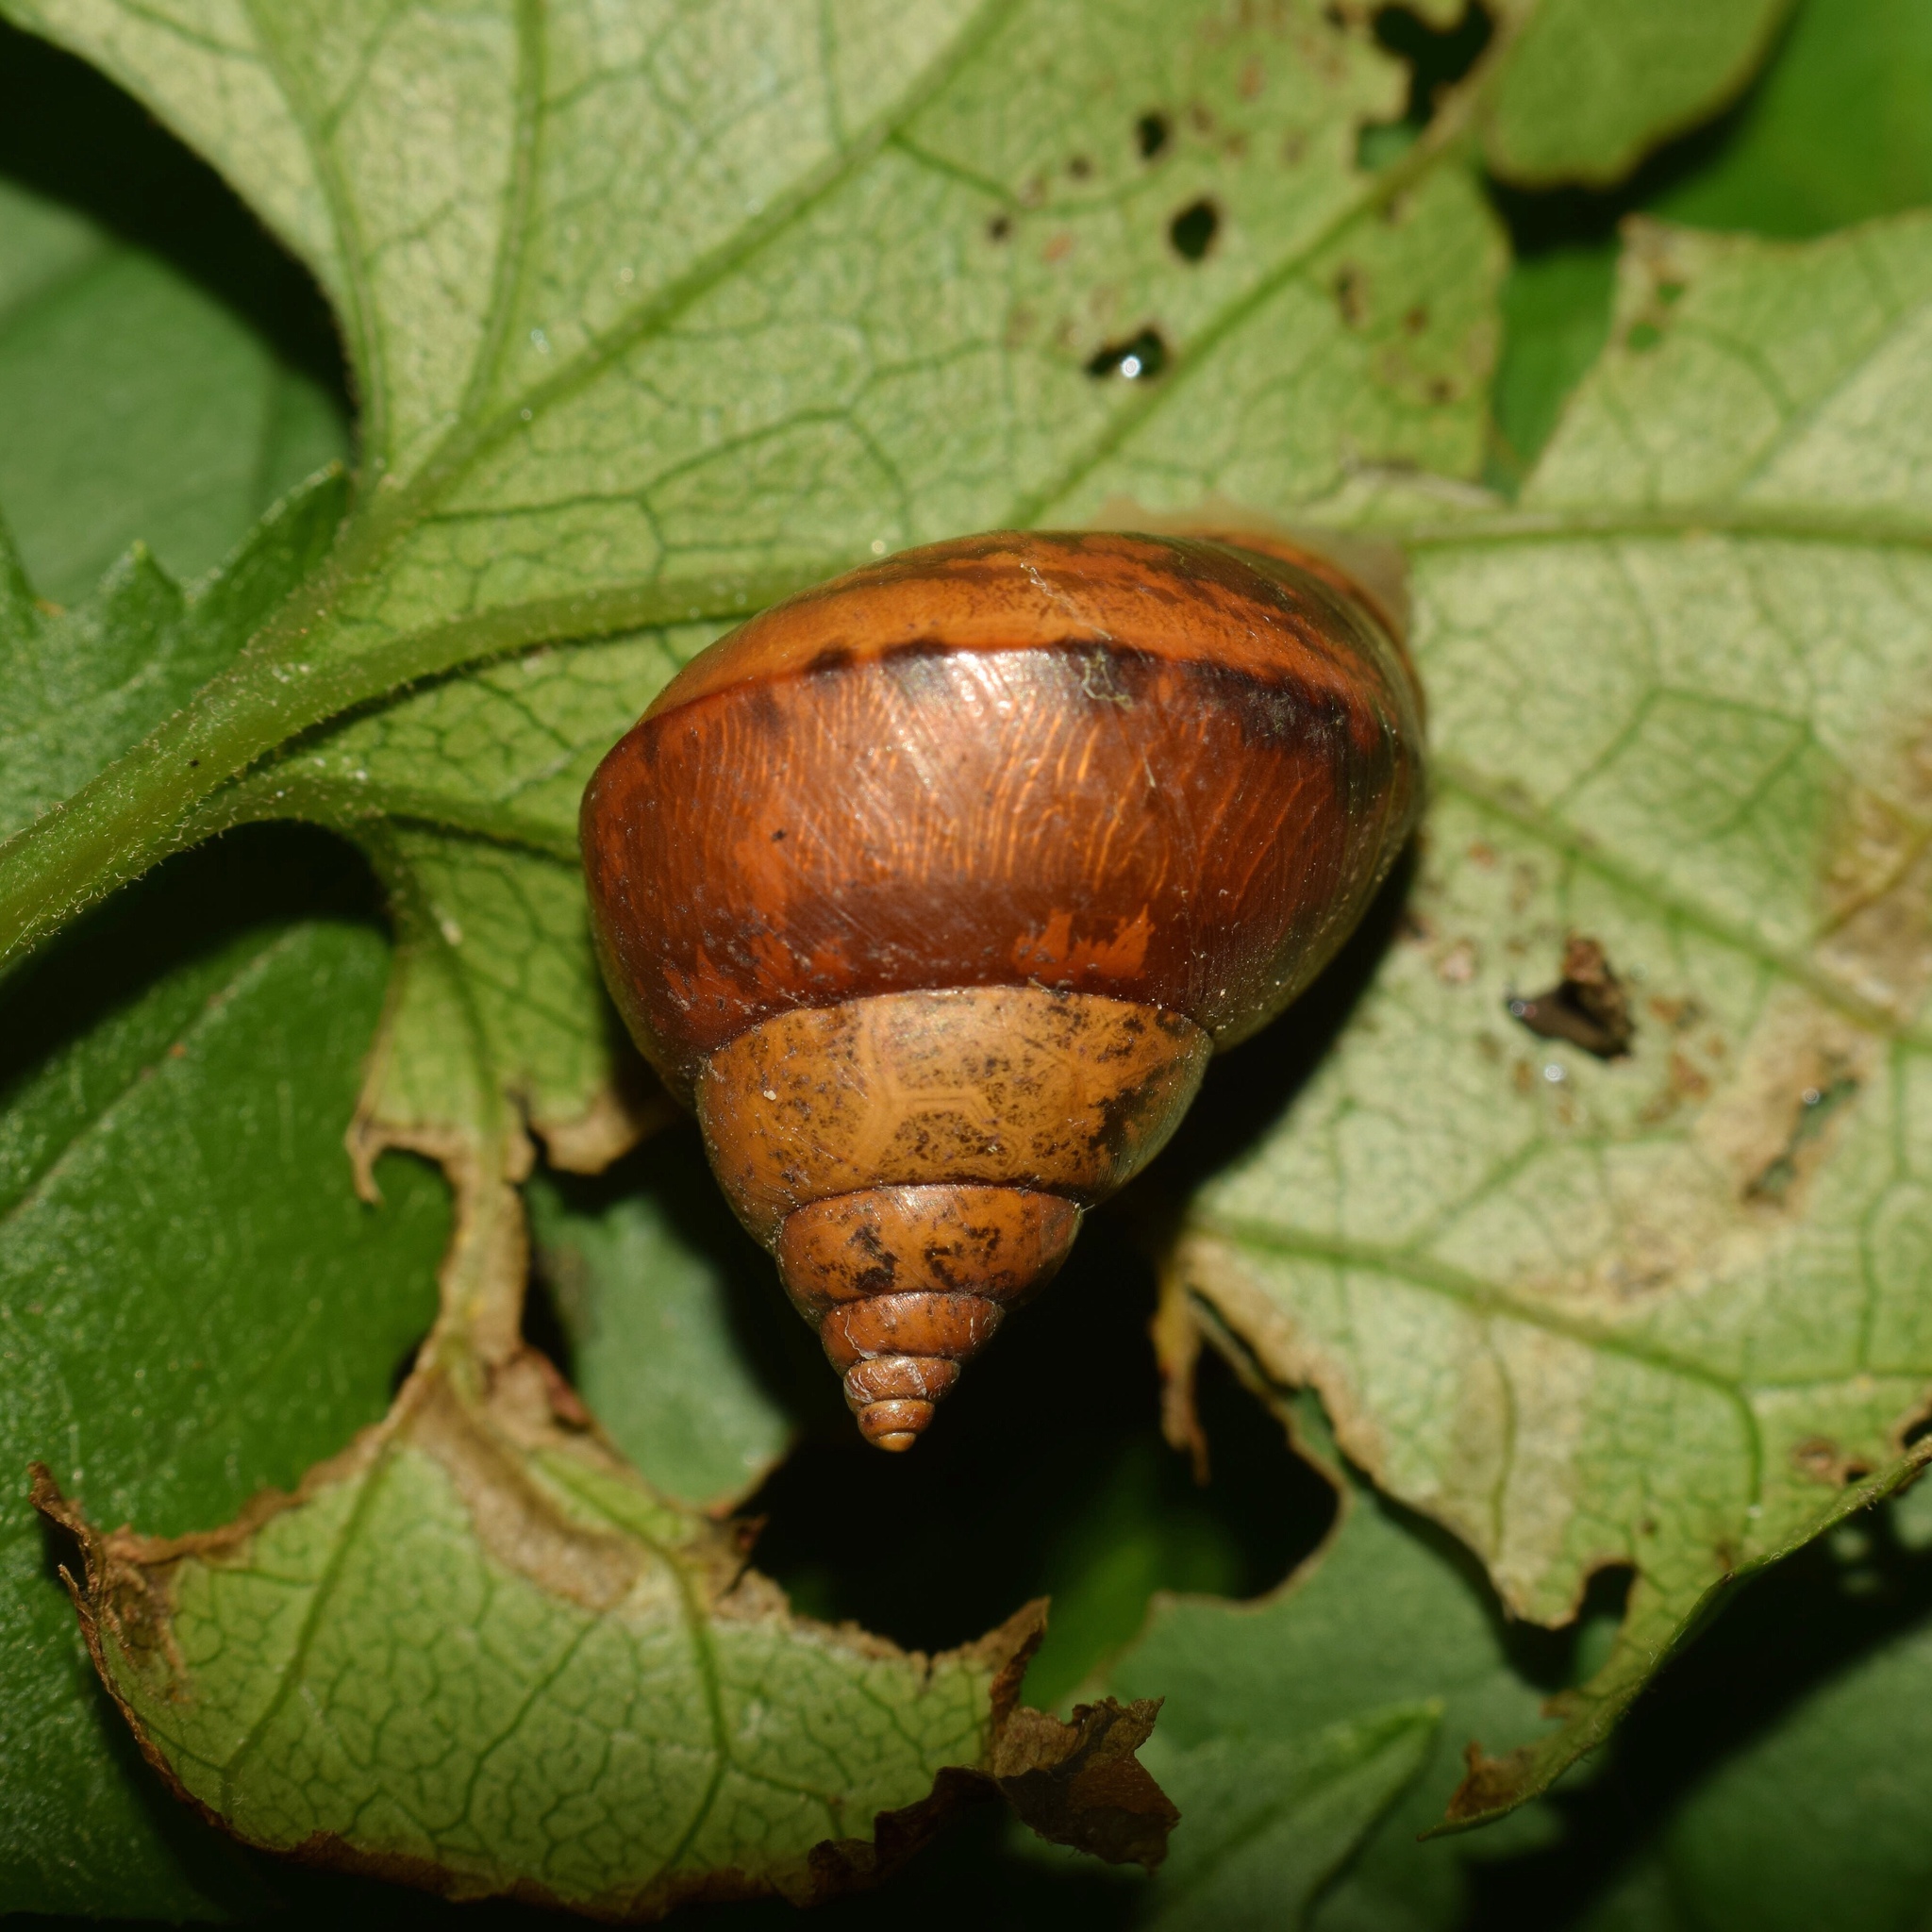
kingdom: Animalia
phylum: Mollusca
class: Gastropoda
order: Stylommatophora
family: Cerastidae
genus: Gittenedouardia
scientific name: Gittenedouardia natalensis
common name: Common bark snail
